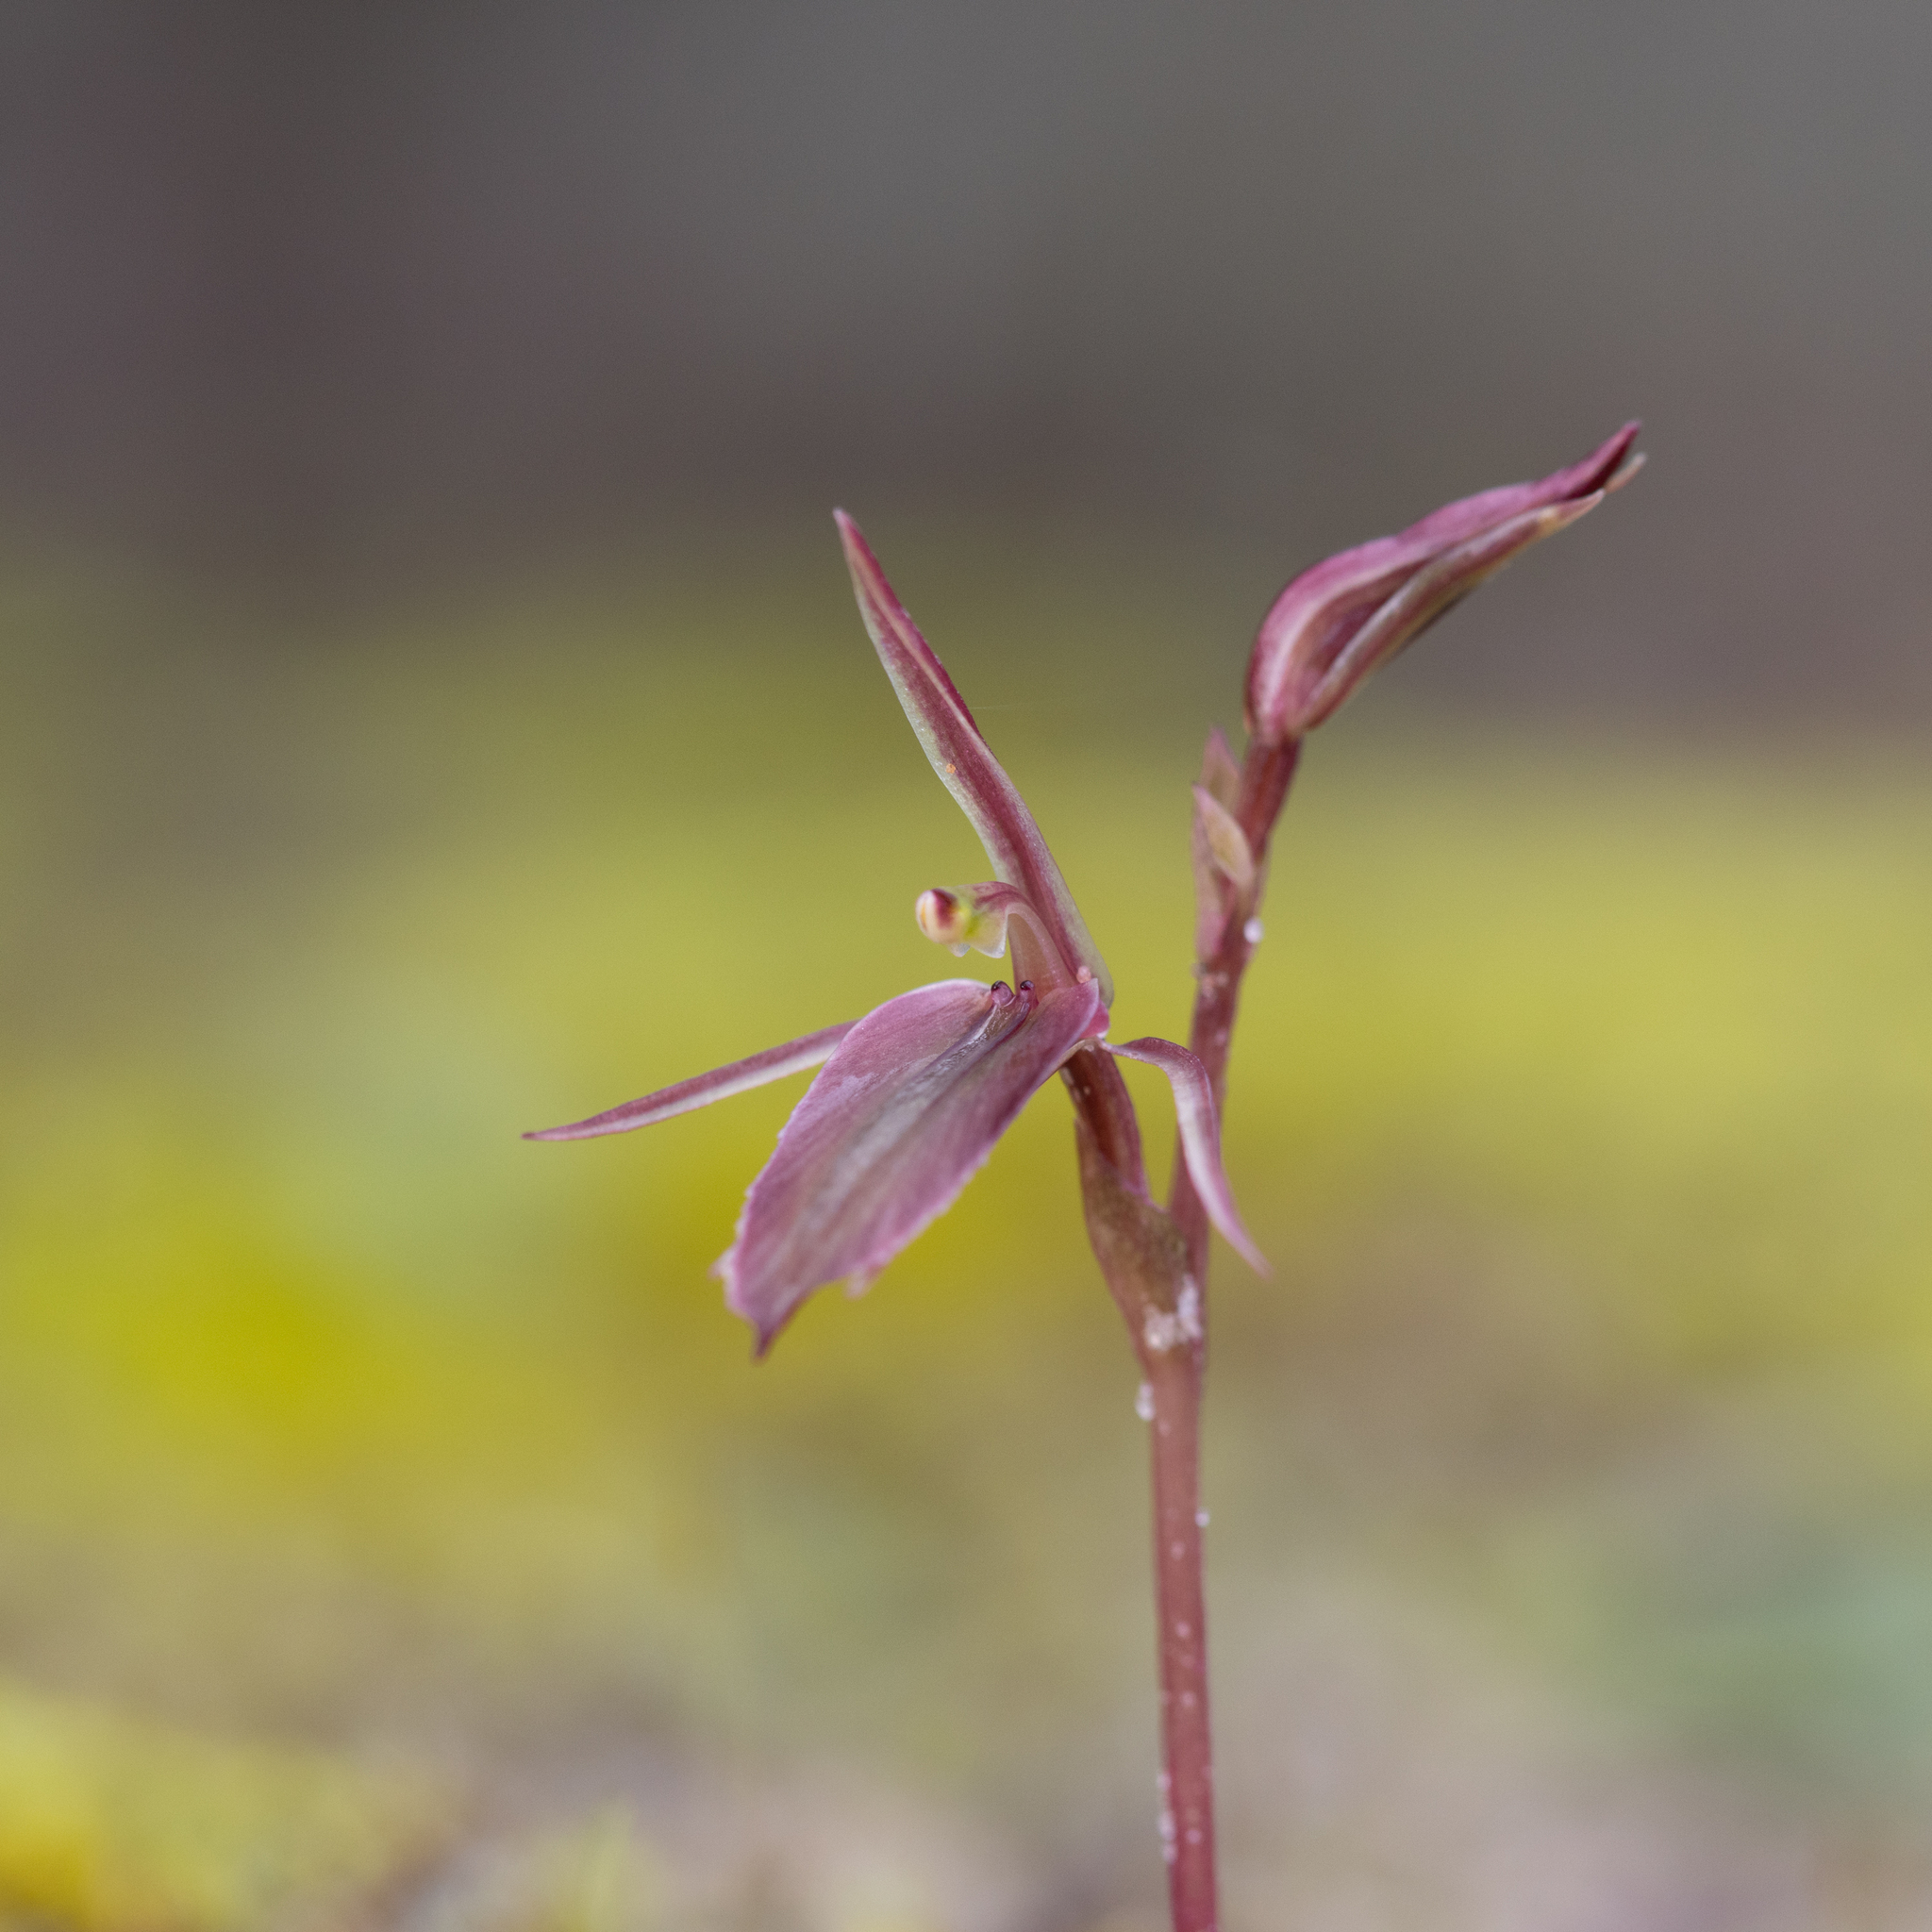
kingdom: Plantae
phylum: Tracheophyta
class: Liliopsida
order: Asparagales
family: Orchidaceae
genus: Cyrtostylis
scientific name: Cyrtostylis robusta
